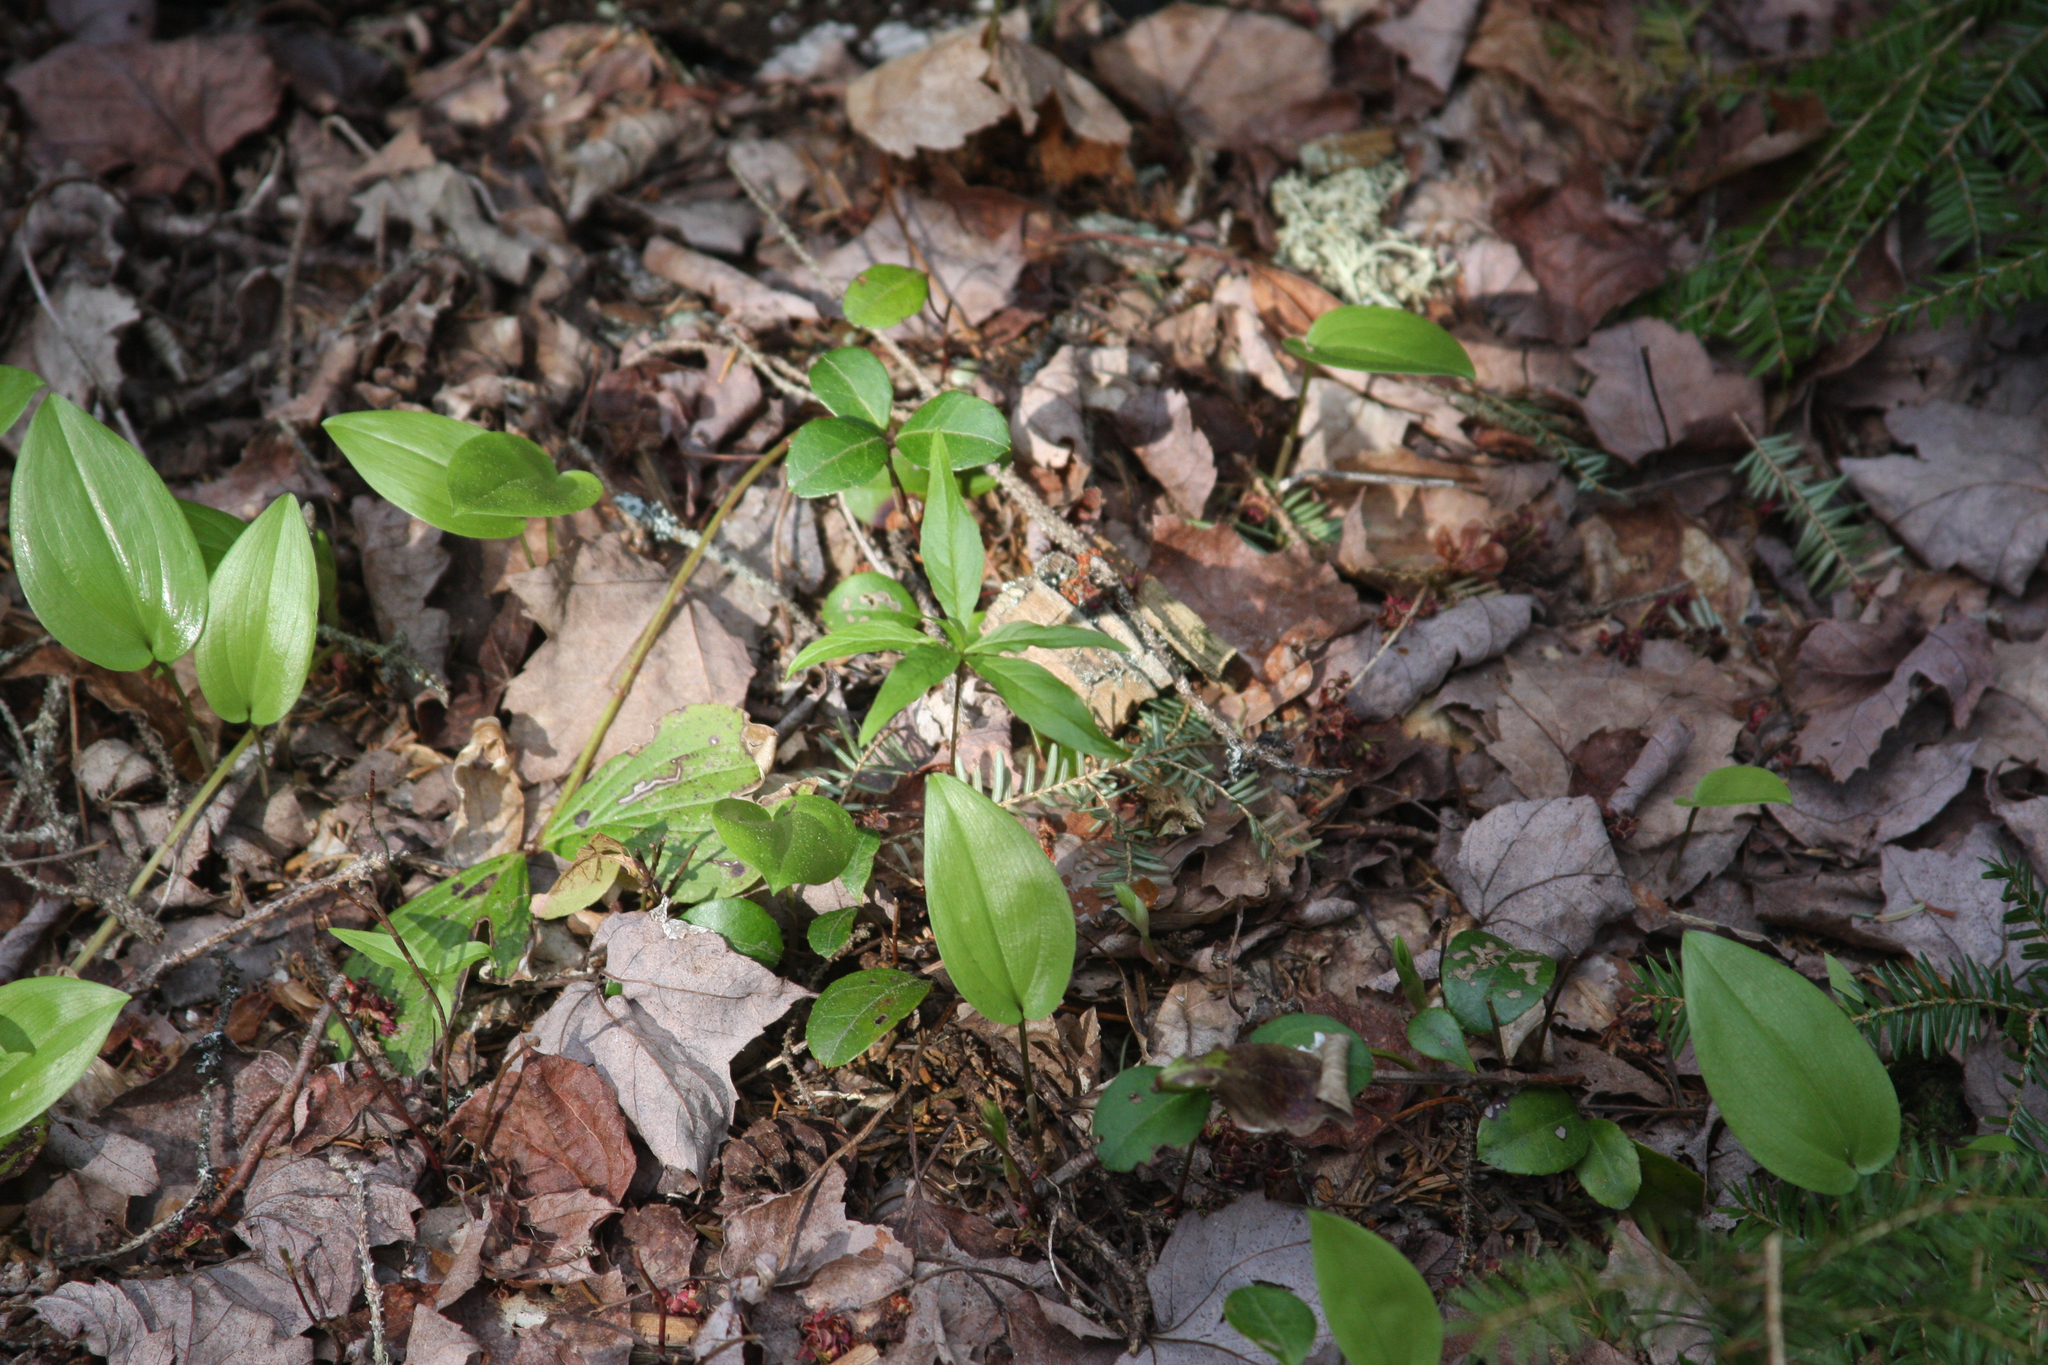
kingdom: Plantae
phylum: Tracheophyta
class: Liliopsida
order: Asparagales
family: Asparagaceae
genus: Maianthemum
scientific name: Maianthemum canadense
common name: False lily-of-the-valley
